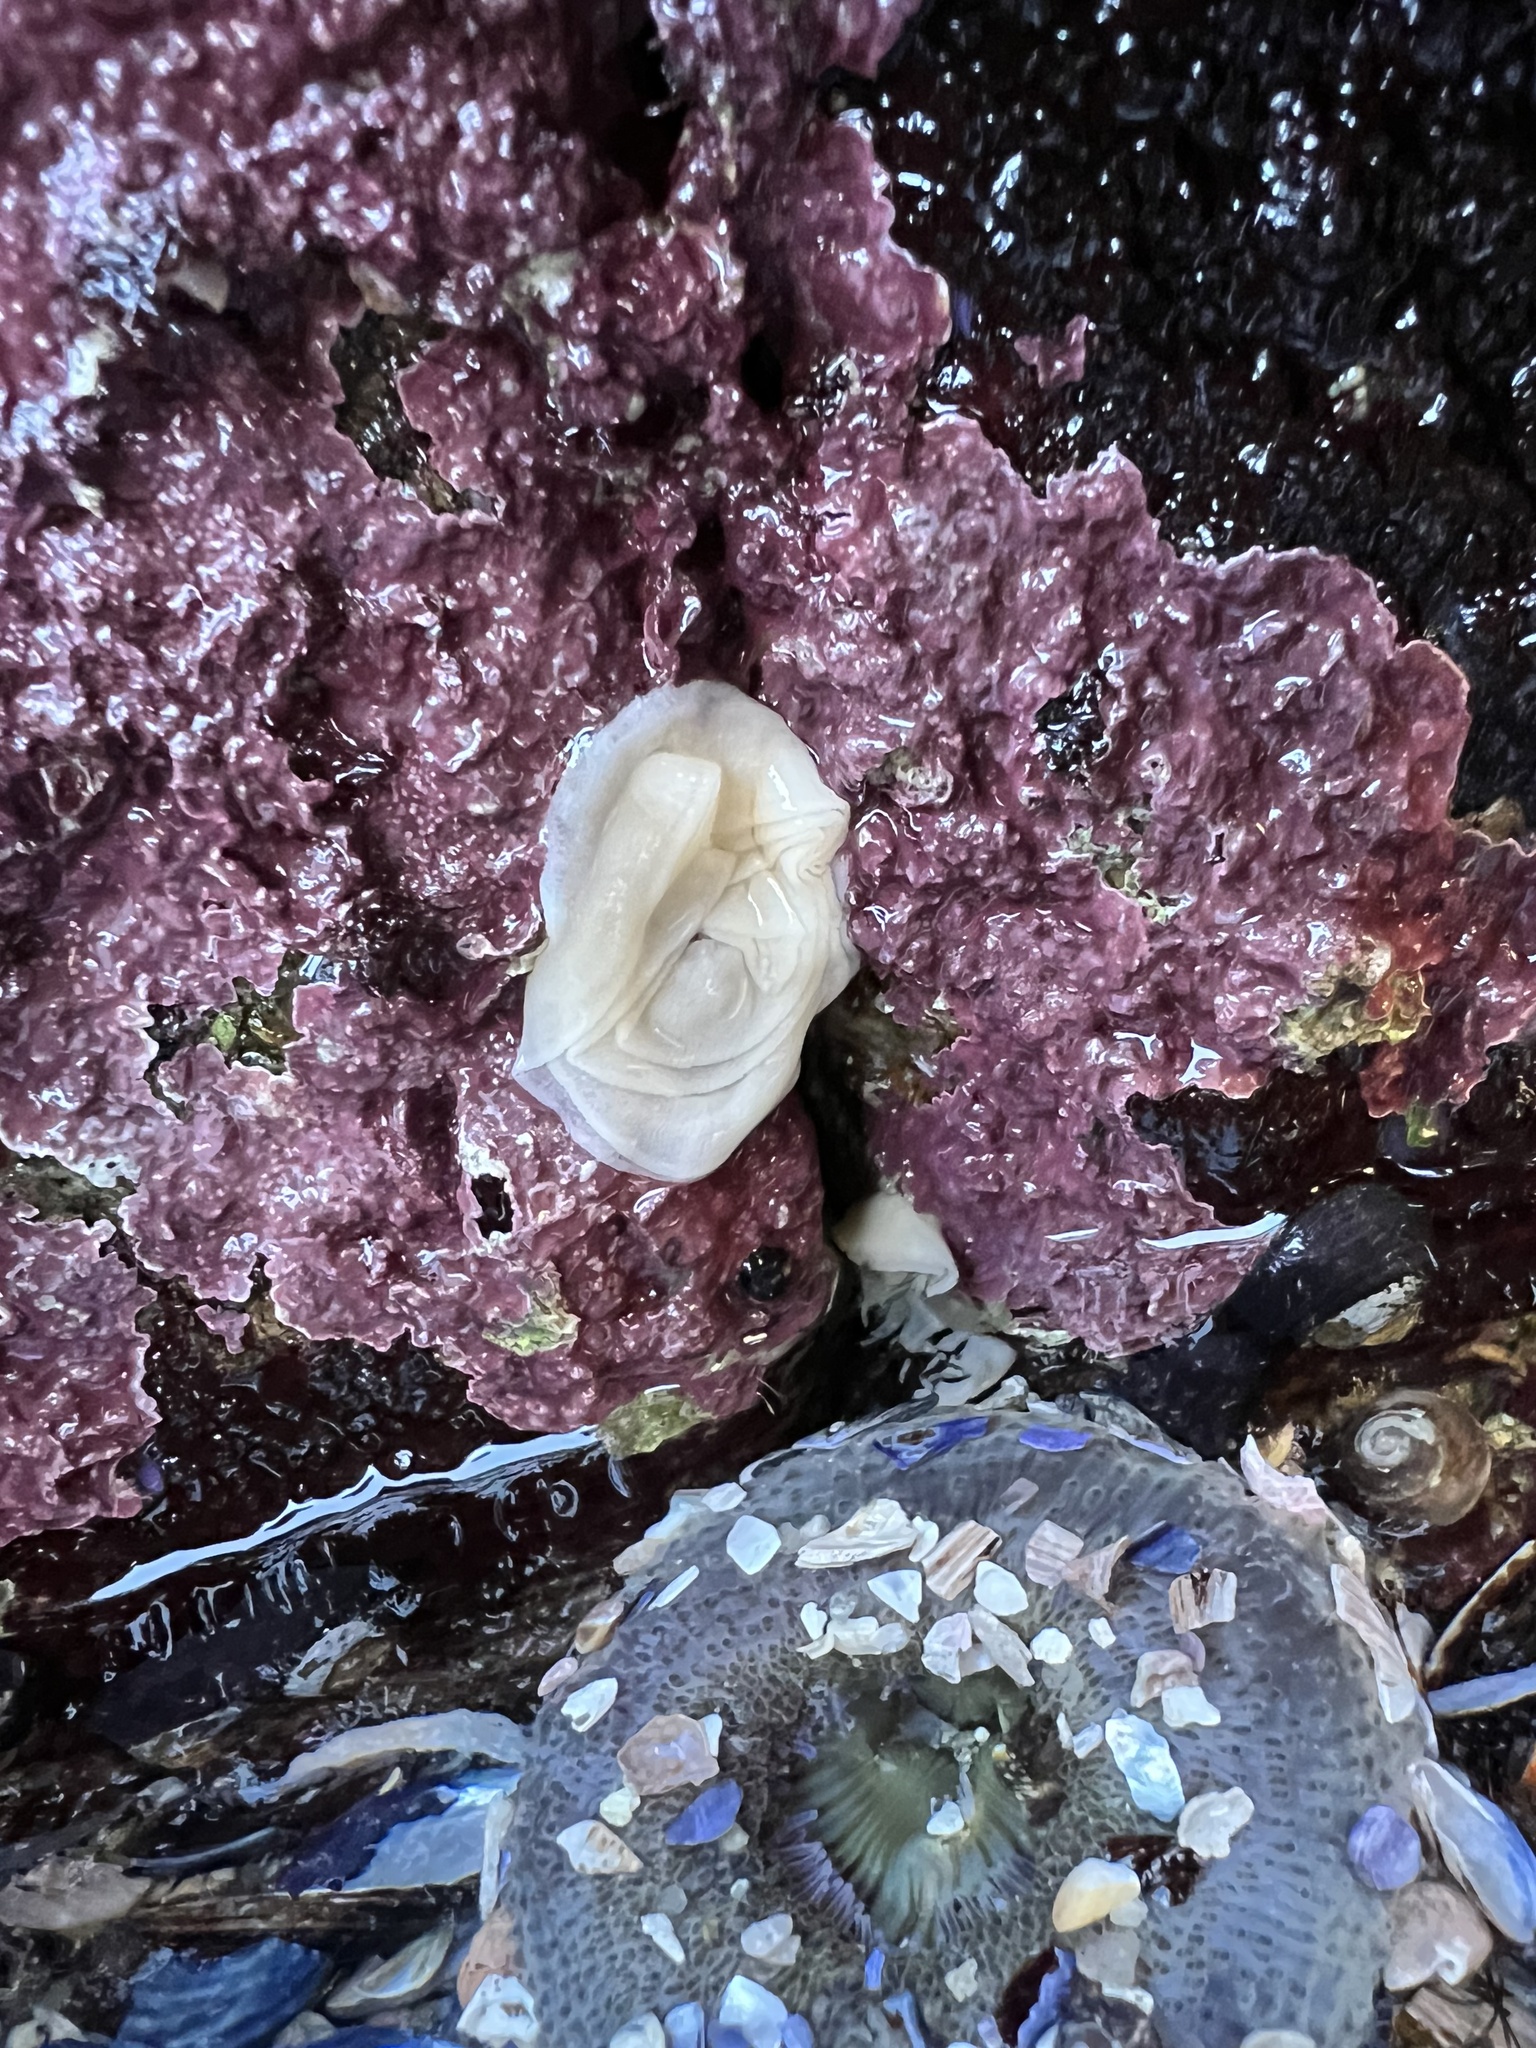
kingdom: Animalia
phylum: Mollusca
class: Gastropoda
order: Nudibranchia
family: Discodorididae
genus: Diaulula
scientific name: Diaulula sandiegensis
